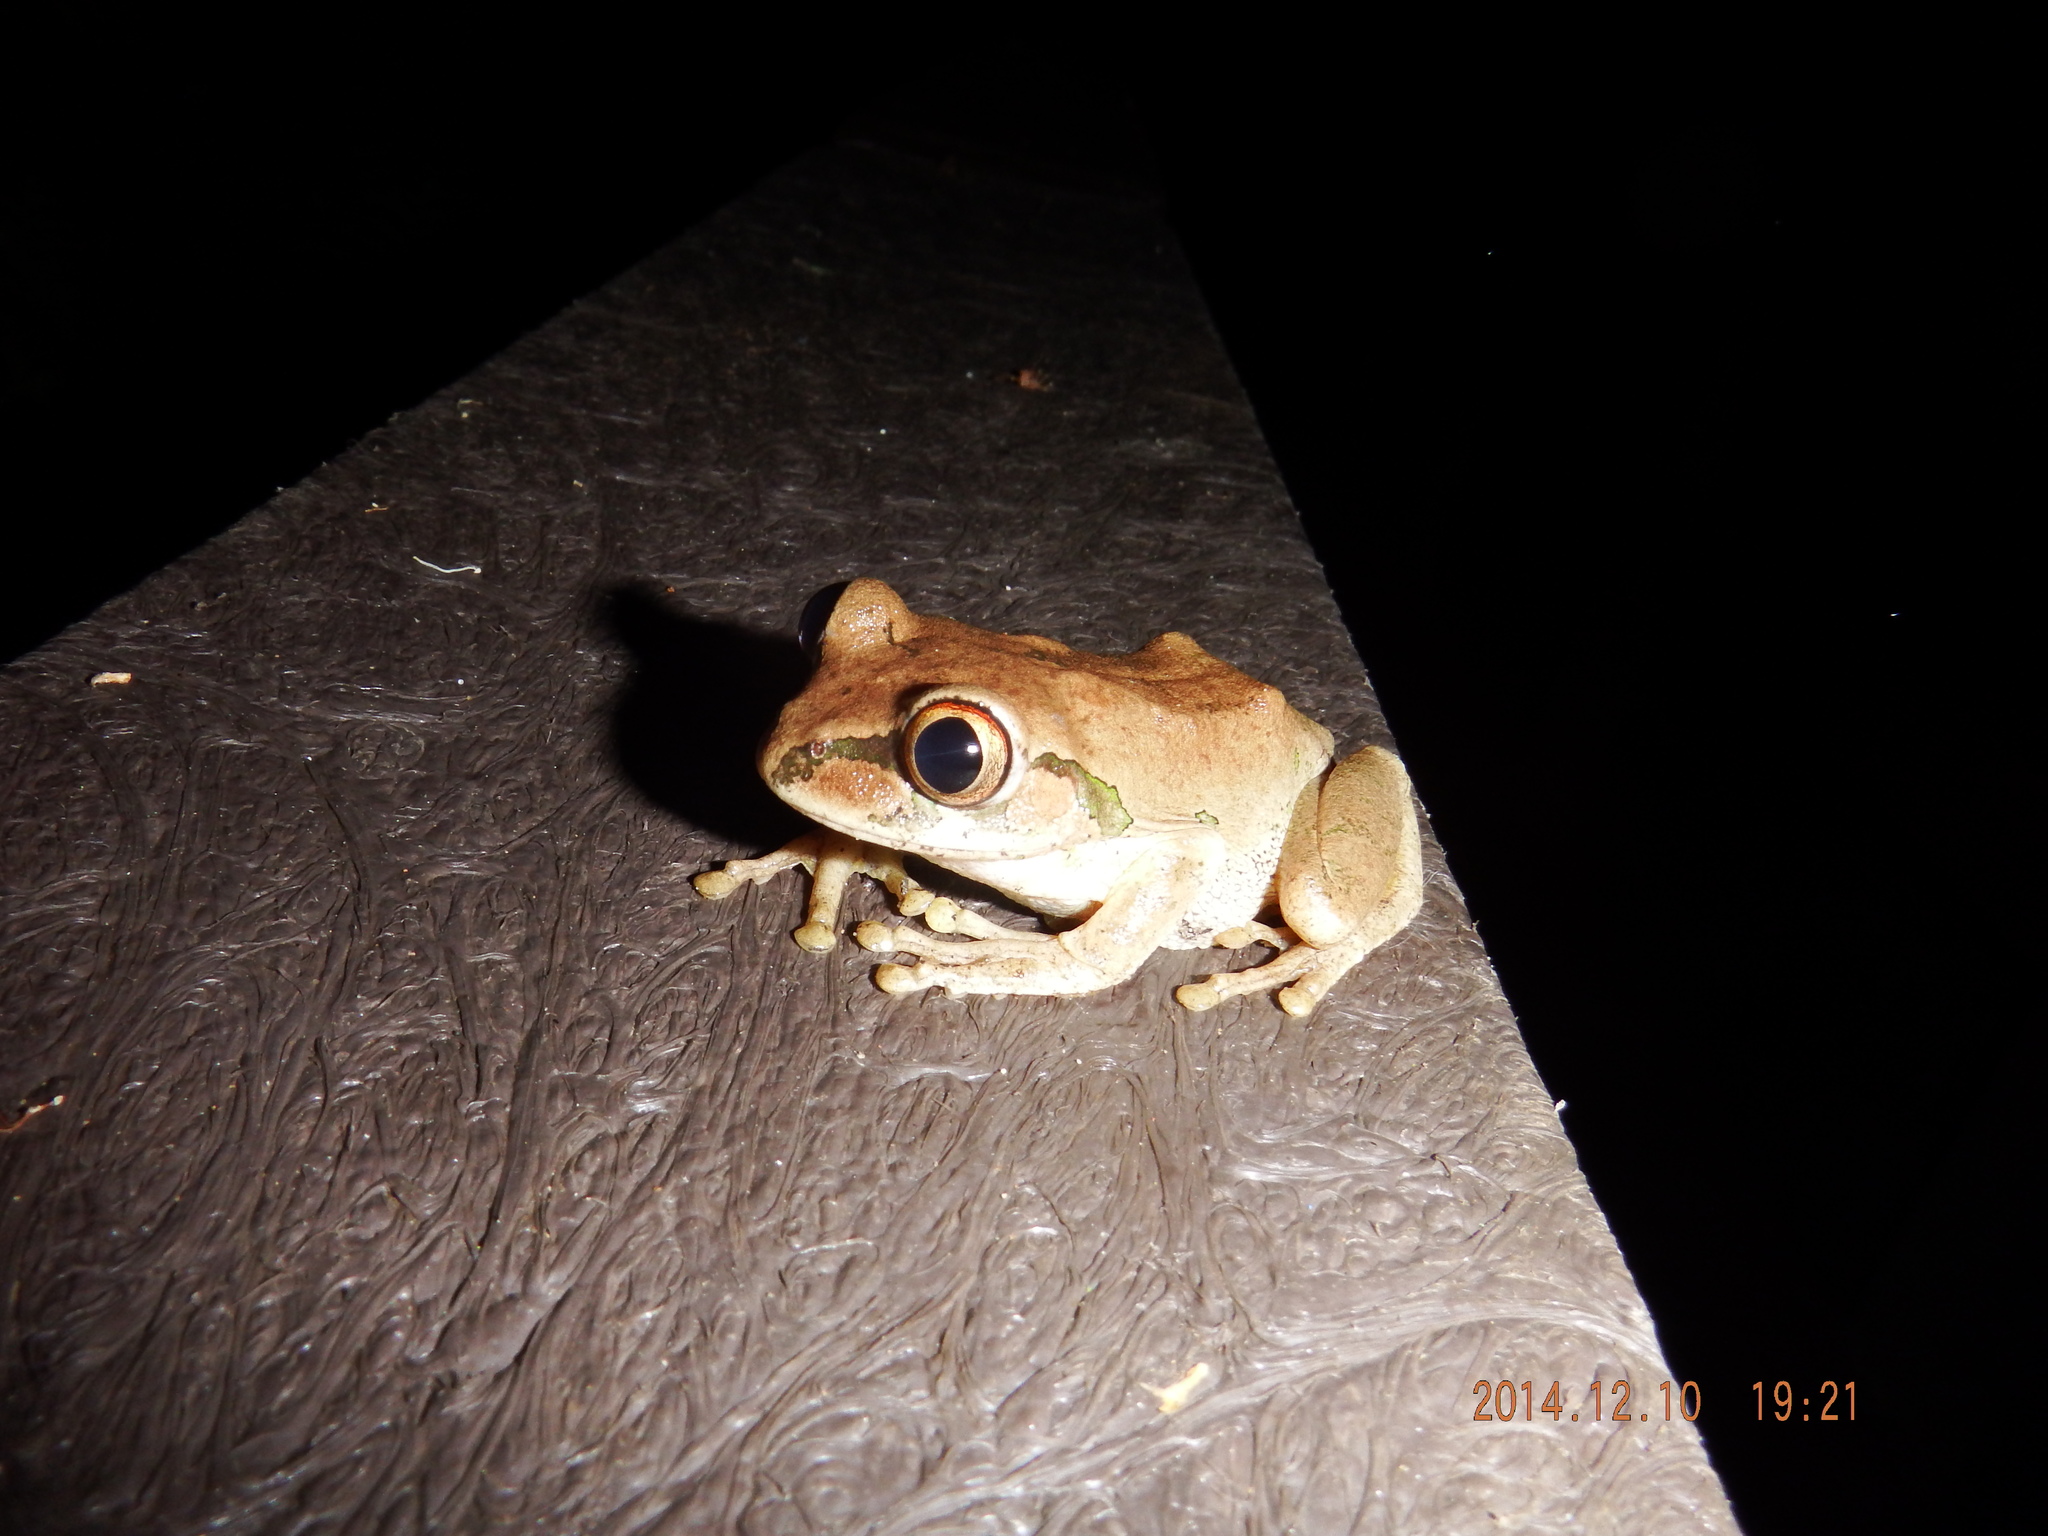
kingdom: Animalia
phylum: Chordata
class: Amphibia
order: Anura
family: Arthroleptidae
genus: Leptopelis
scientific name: Leptopelis natalensis
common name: Natal tree frog
